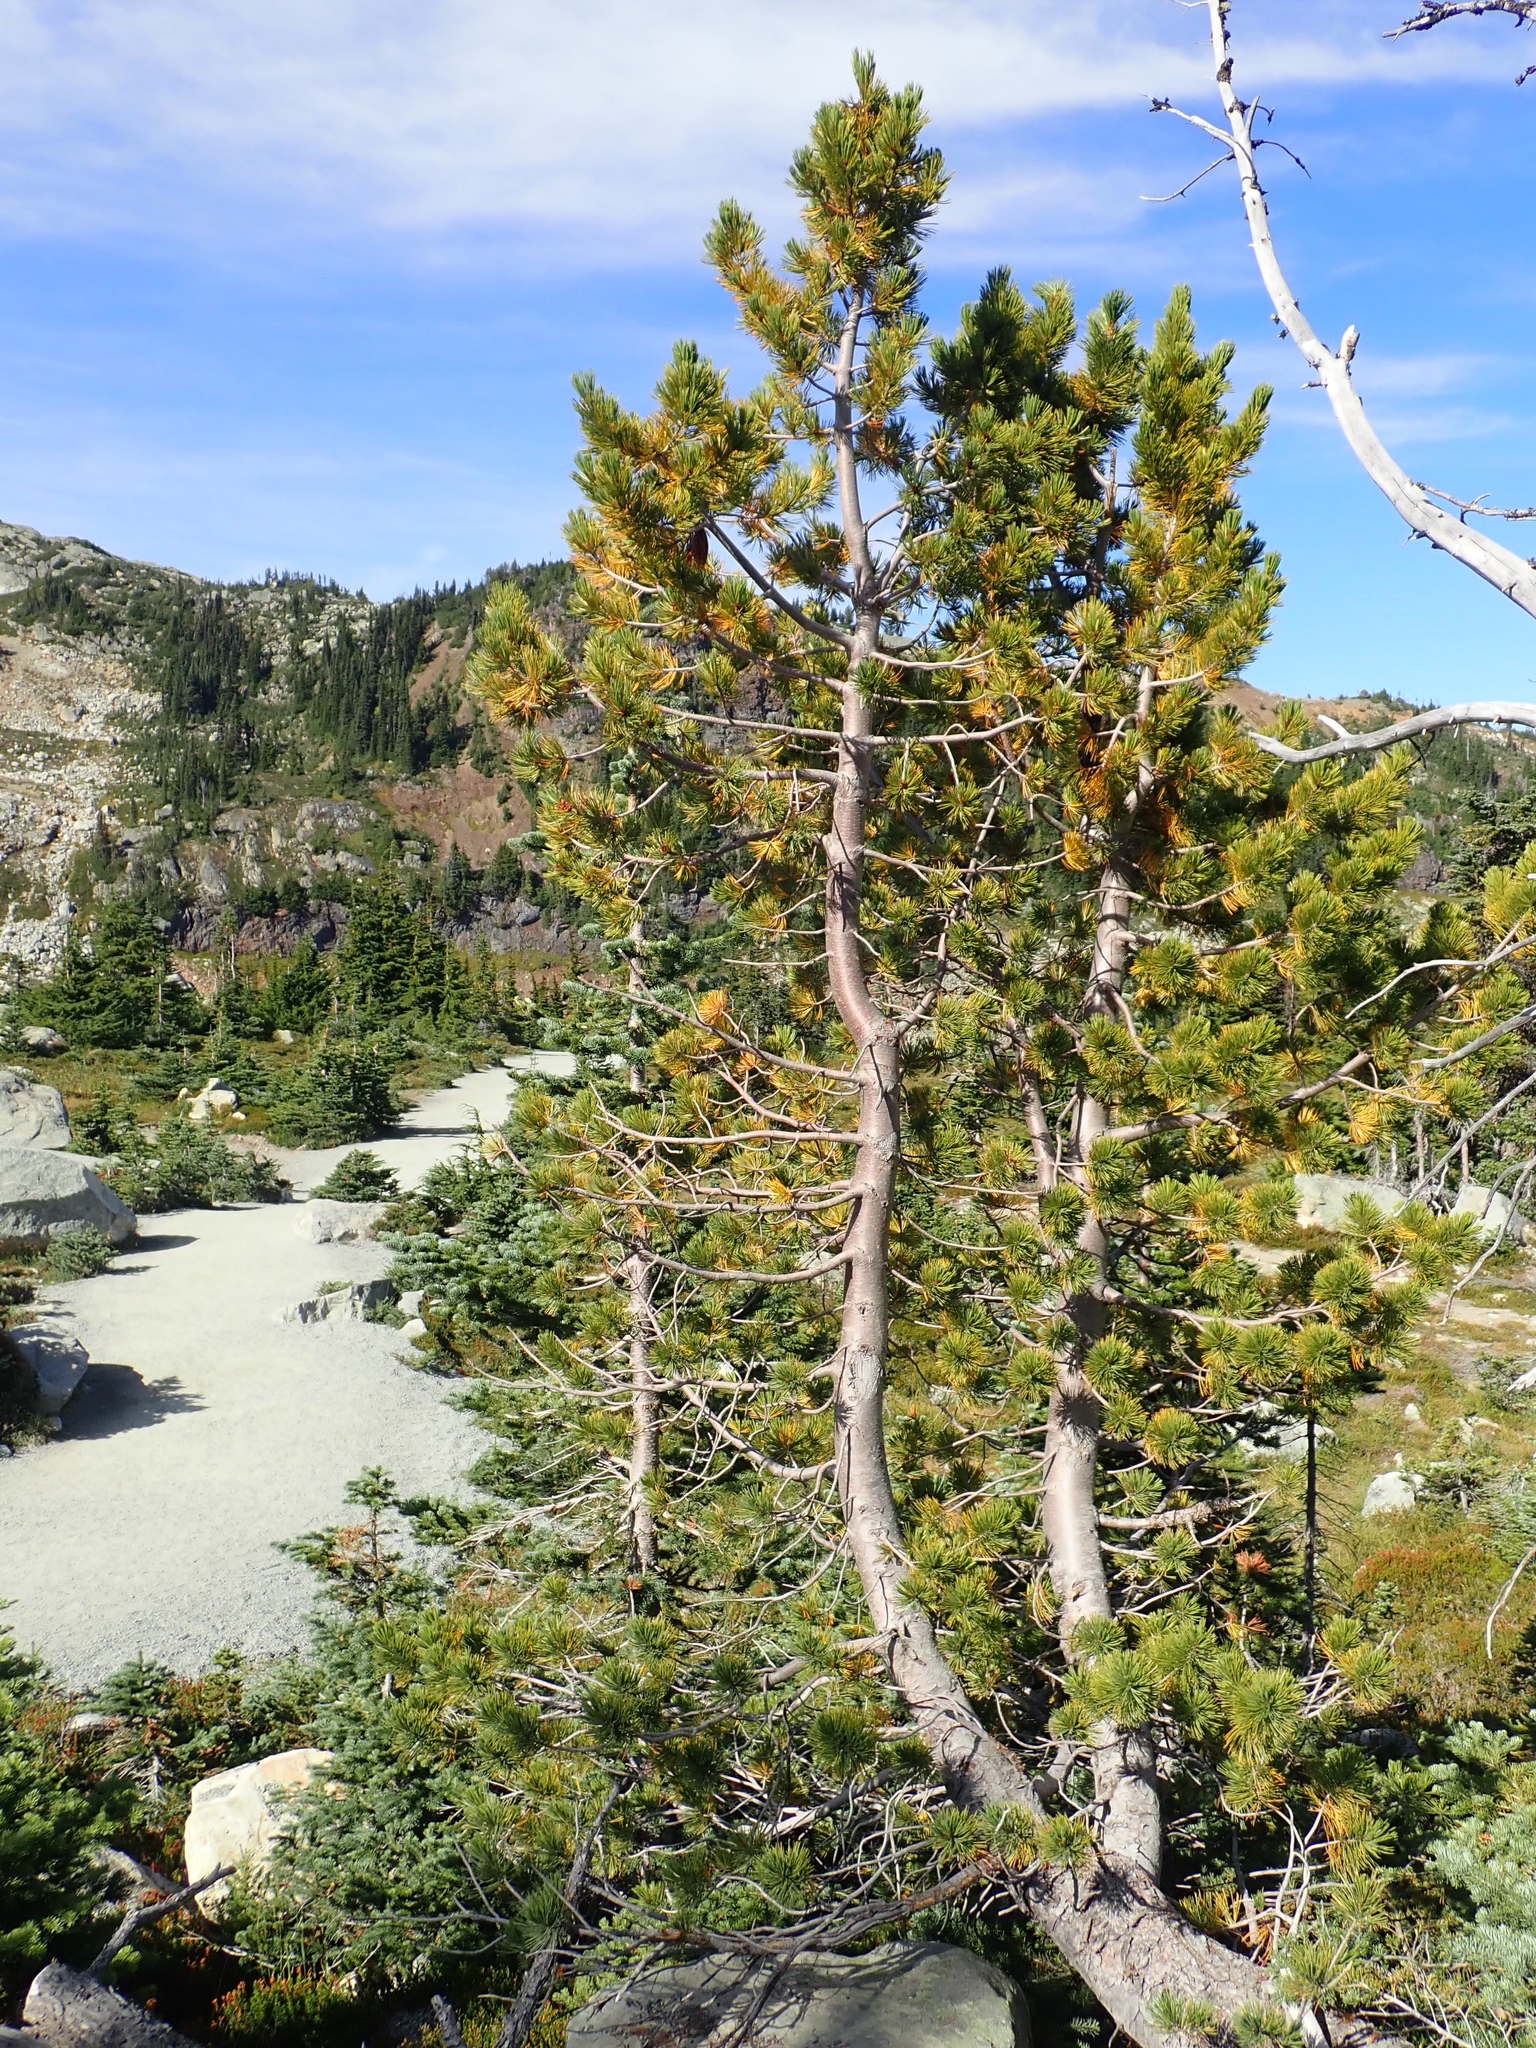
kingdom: Plantae
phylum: Tracheophyta
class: Pinopsida
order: Pinales
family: Pinaceae
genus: Pinus
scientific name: Pinus albicaulis
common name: Whitebark pine
